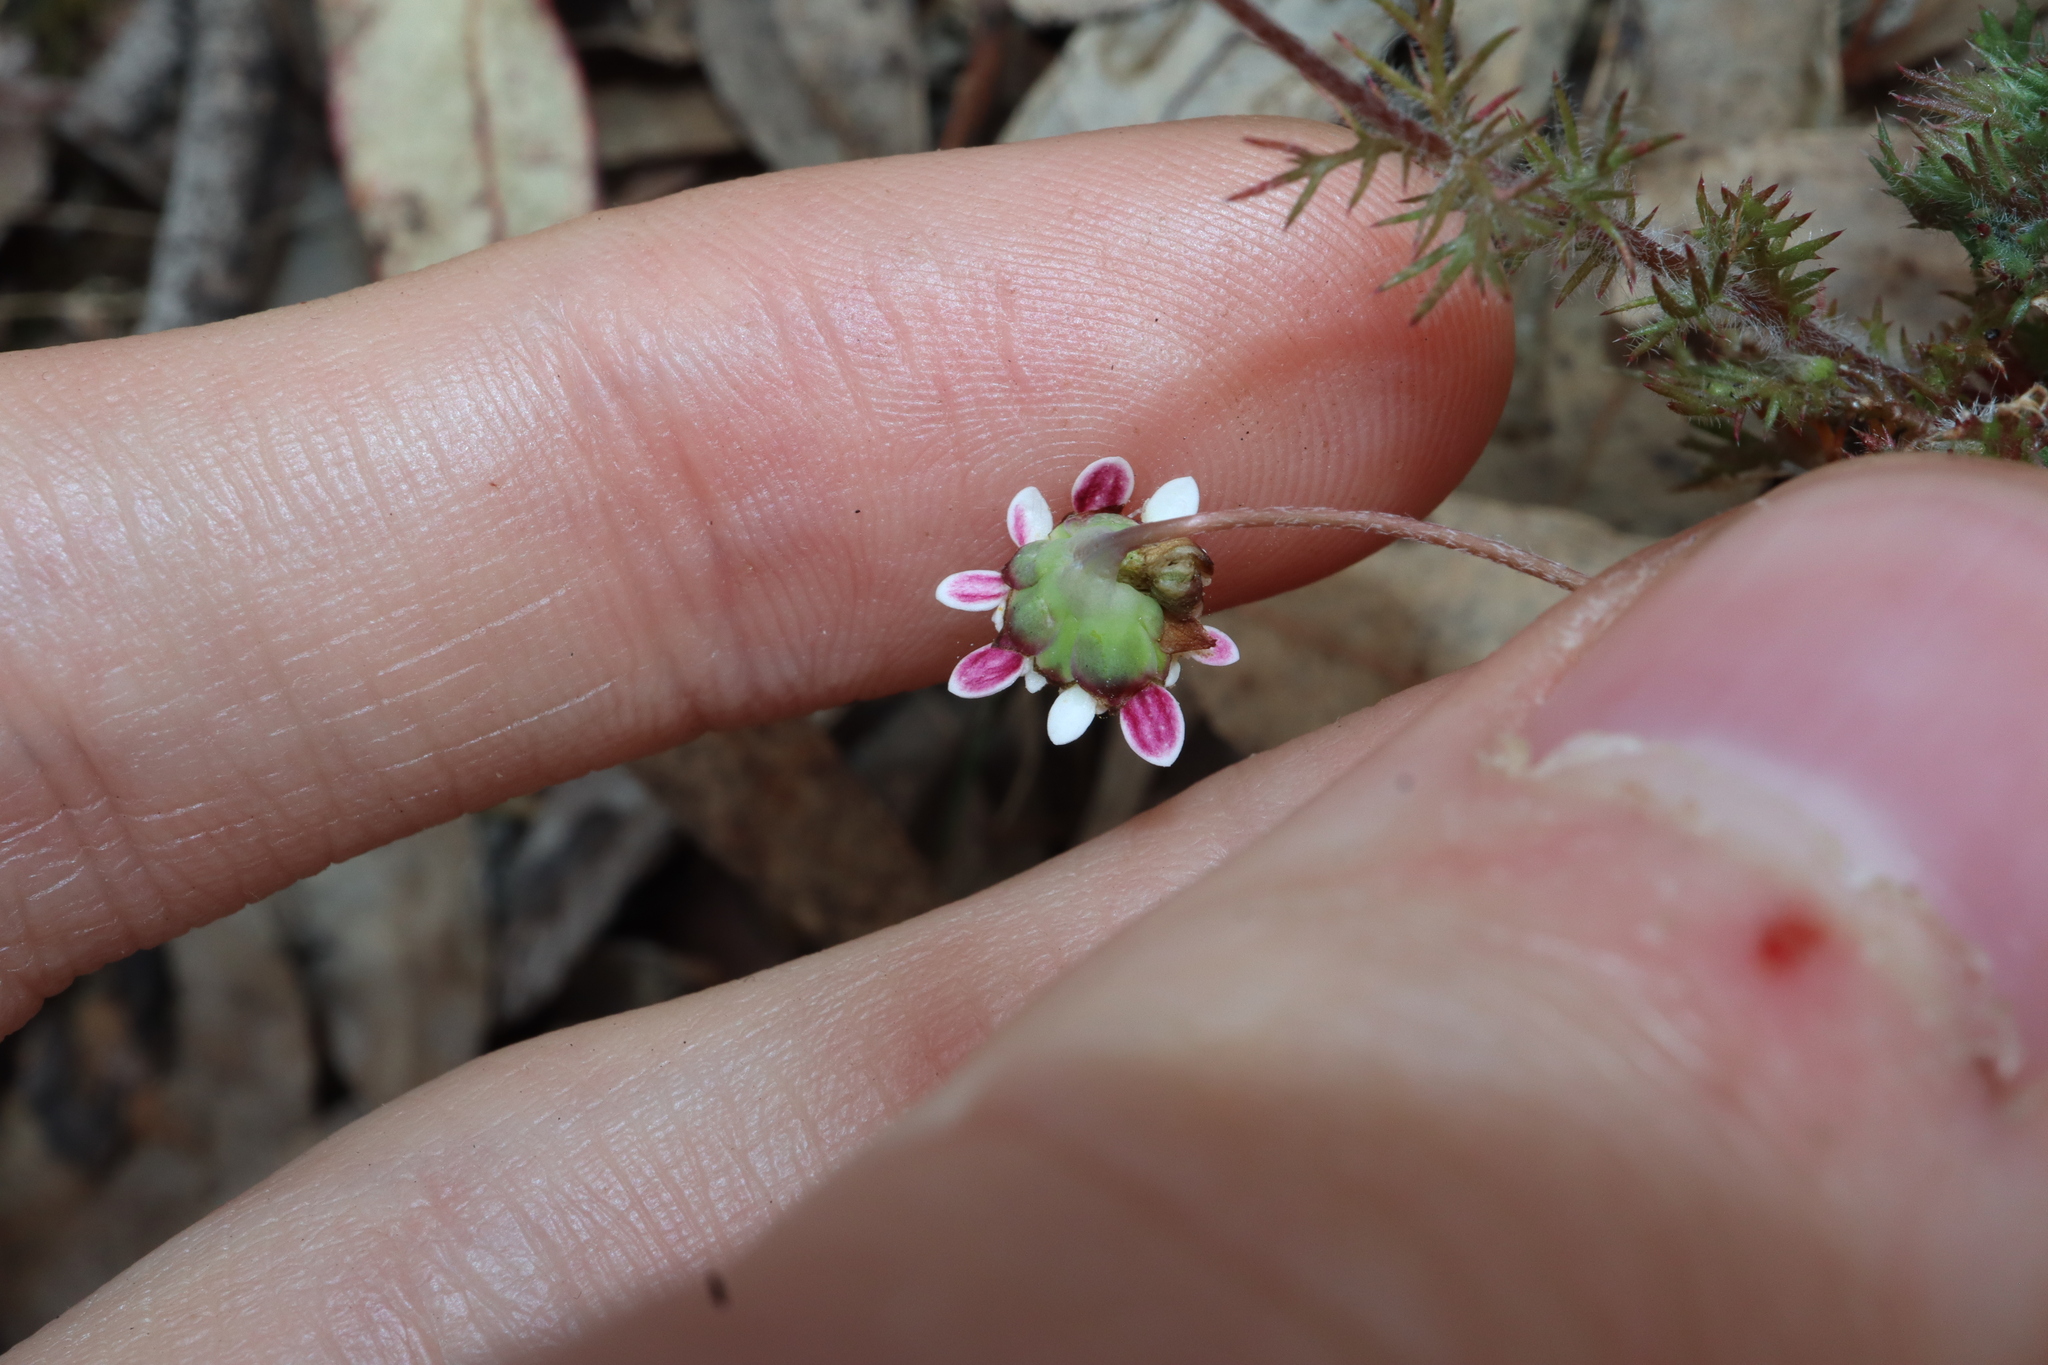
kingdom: Plantae
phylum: Tracheophyta
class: Magnoliopsida
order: Asterales
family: Asteraceae
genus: Cotula
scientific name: Cotula turbinata
